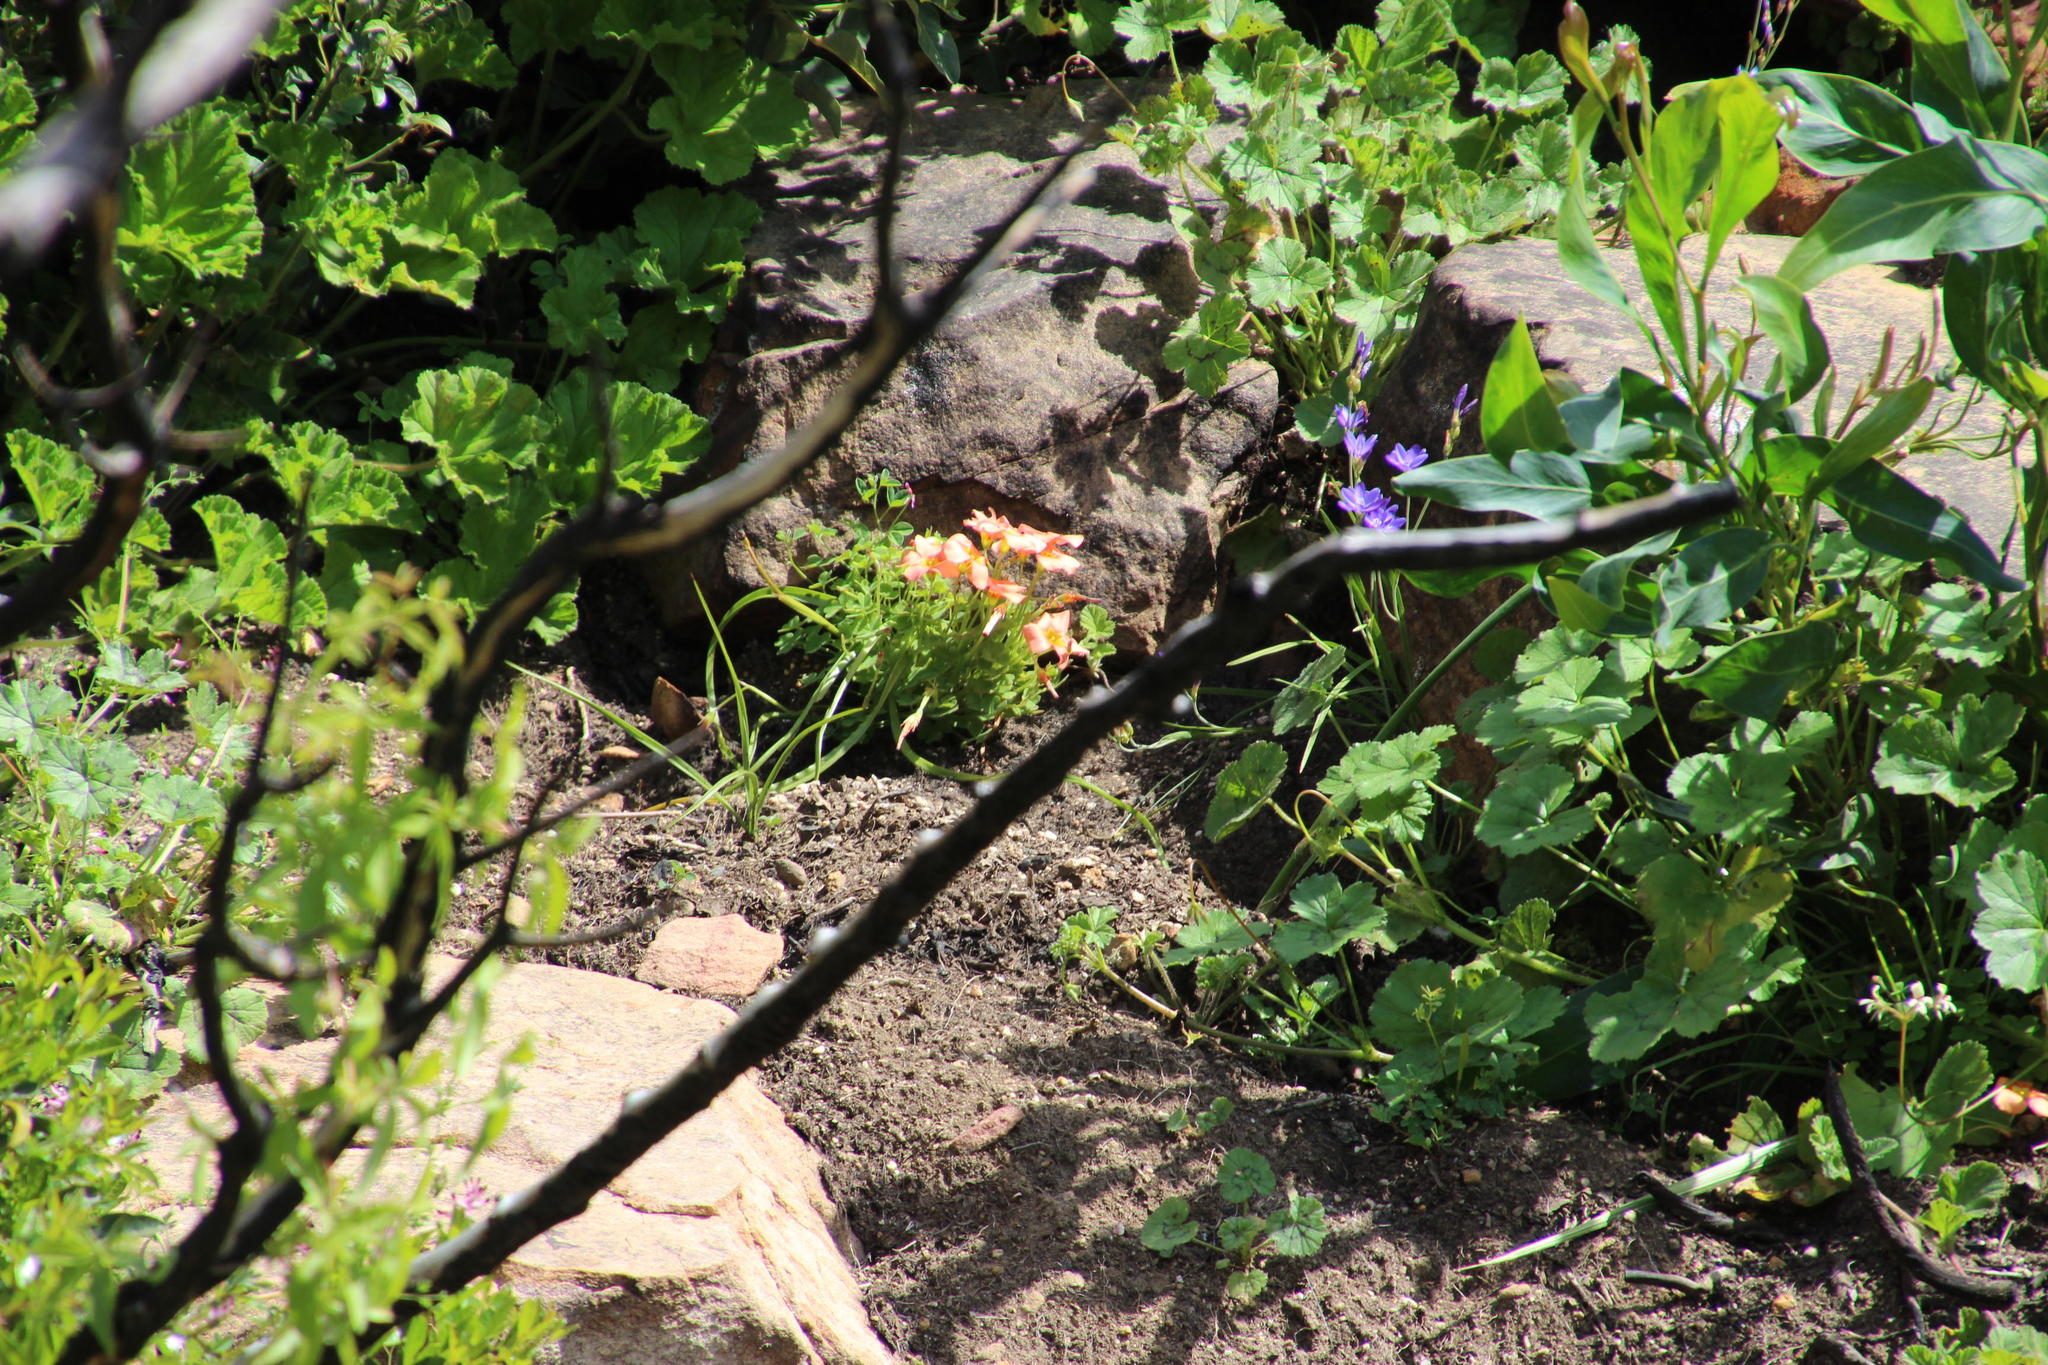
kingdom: Plantae
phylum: Tracheophyta
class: Magnoliopsida
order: Oxalidales
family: Oxalidaceae
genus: Oxalis
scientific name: Oxalis obtusa
